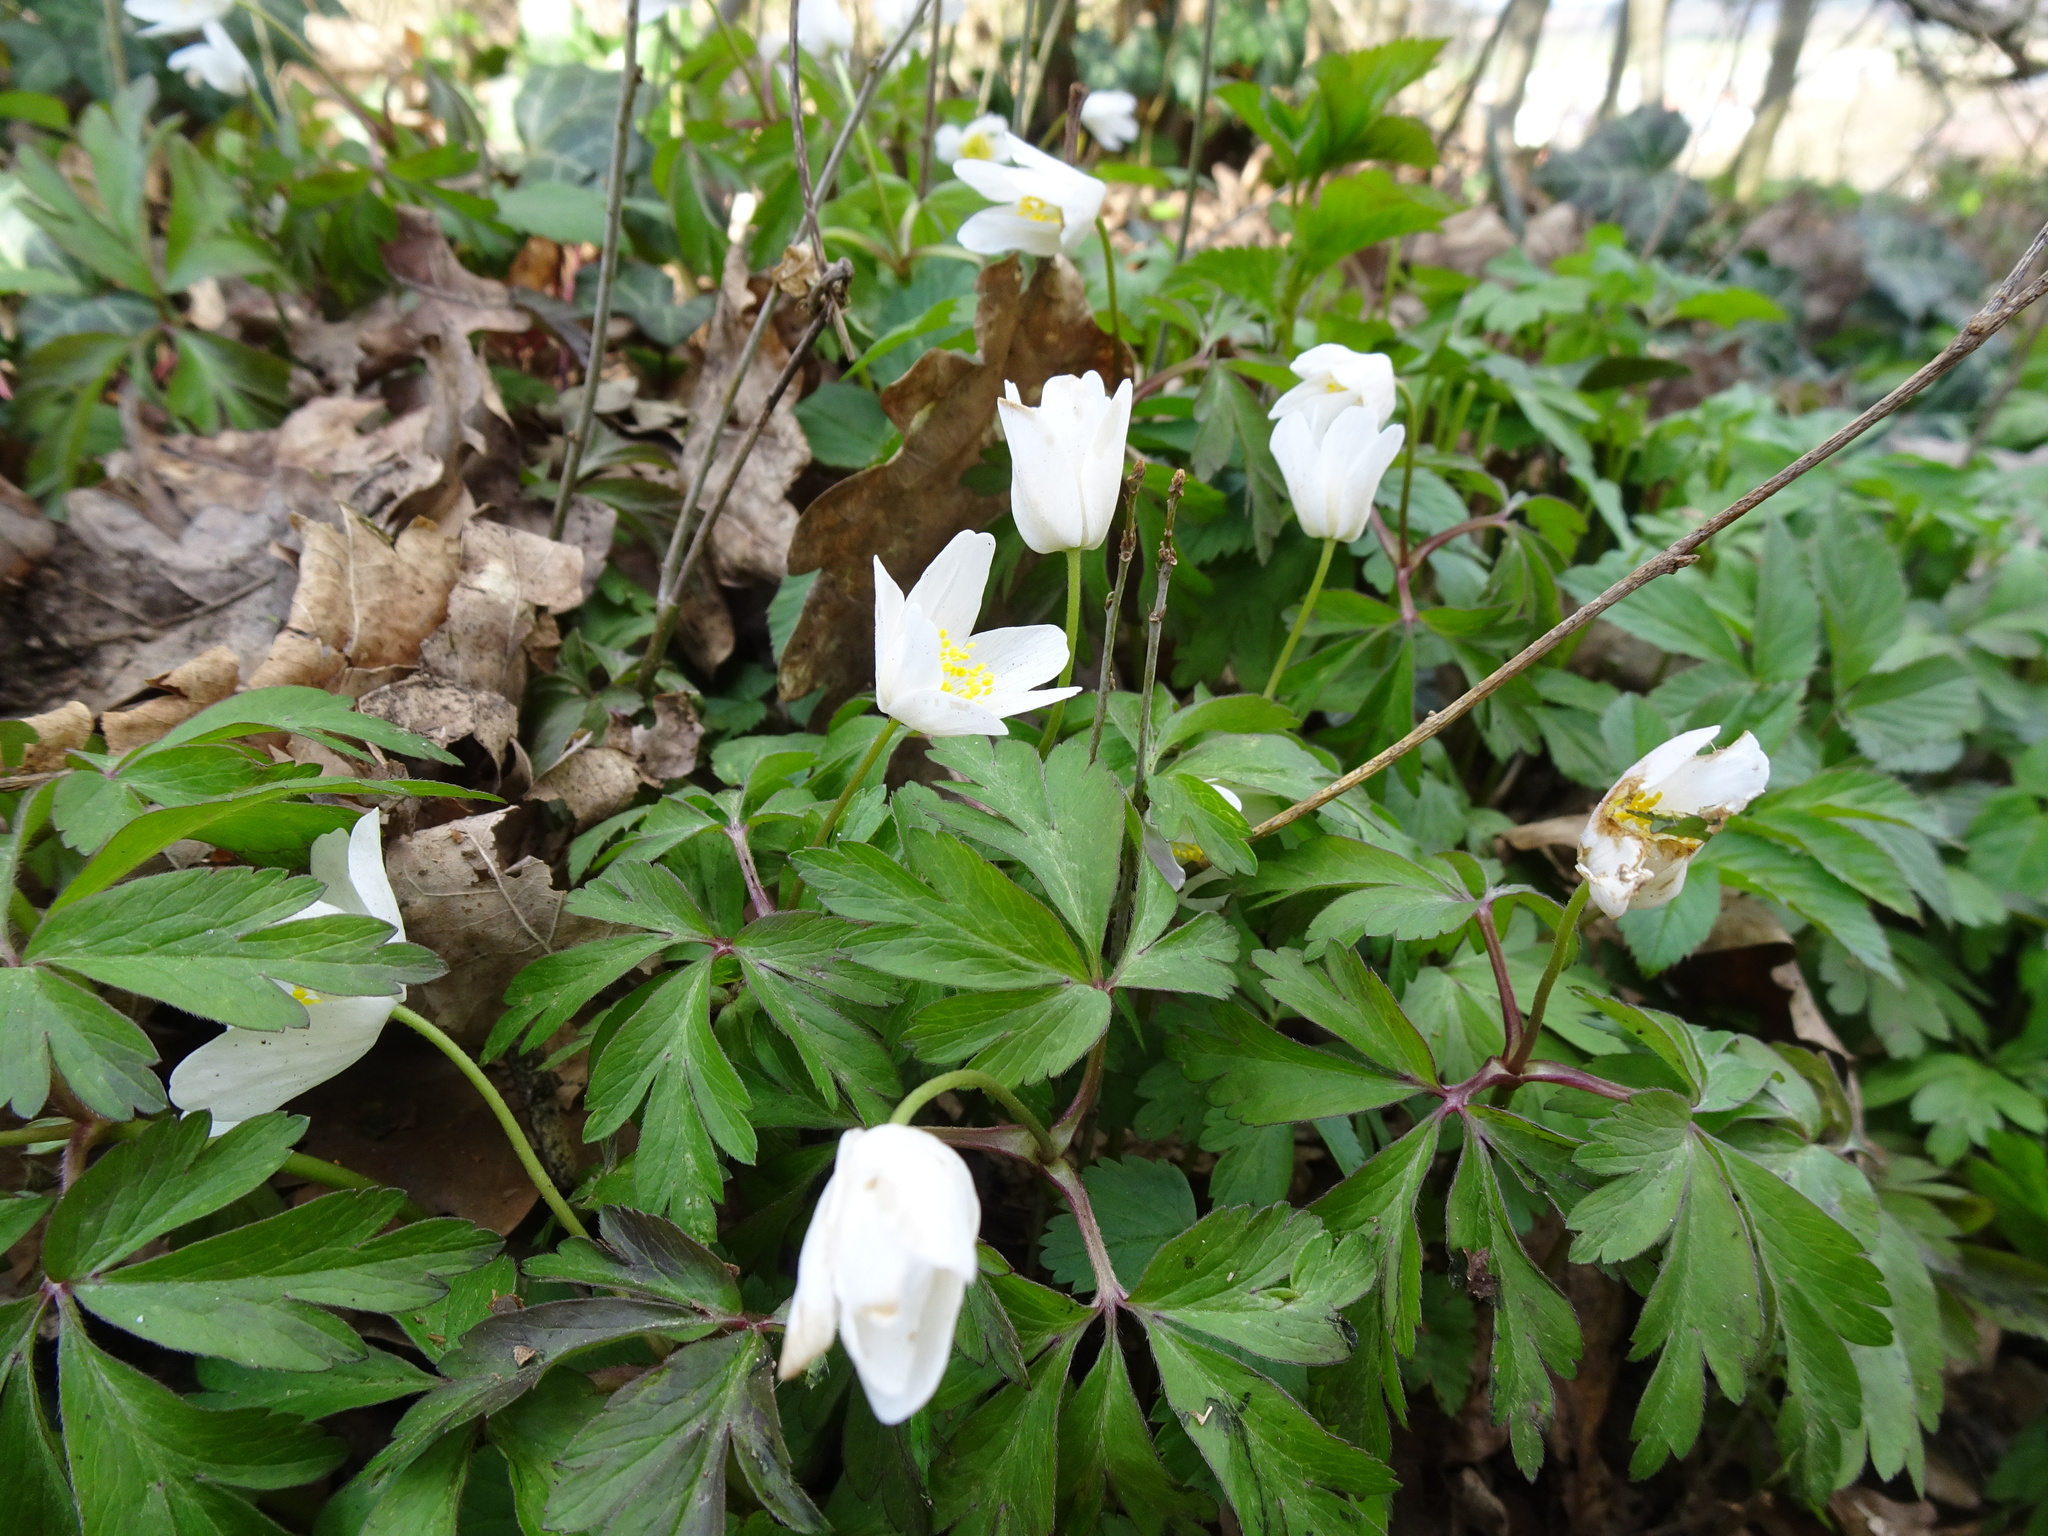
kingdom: Plantae
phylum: Tracheophyta
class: Magnoliopsida
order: Ranunculales
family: Ranunculaceae
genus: Anemone
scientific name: Anemone nemorosa
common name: Wood anemone
